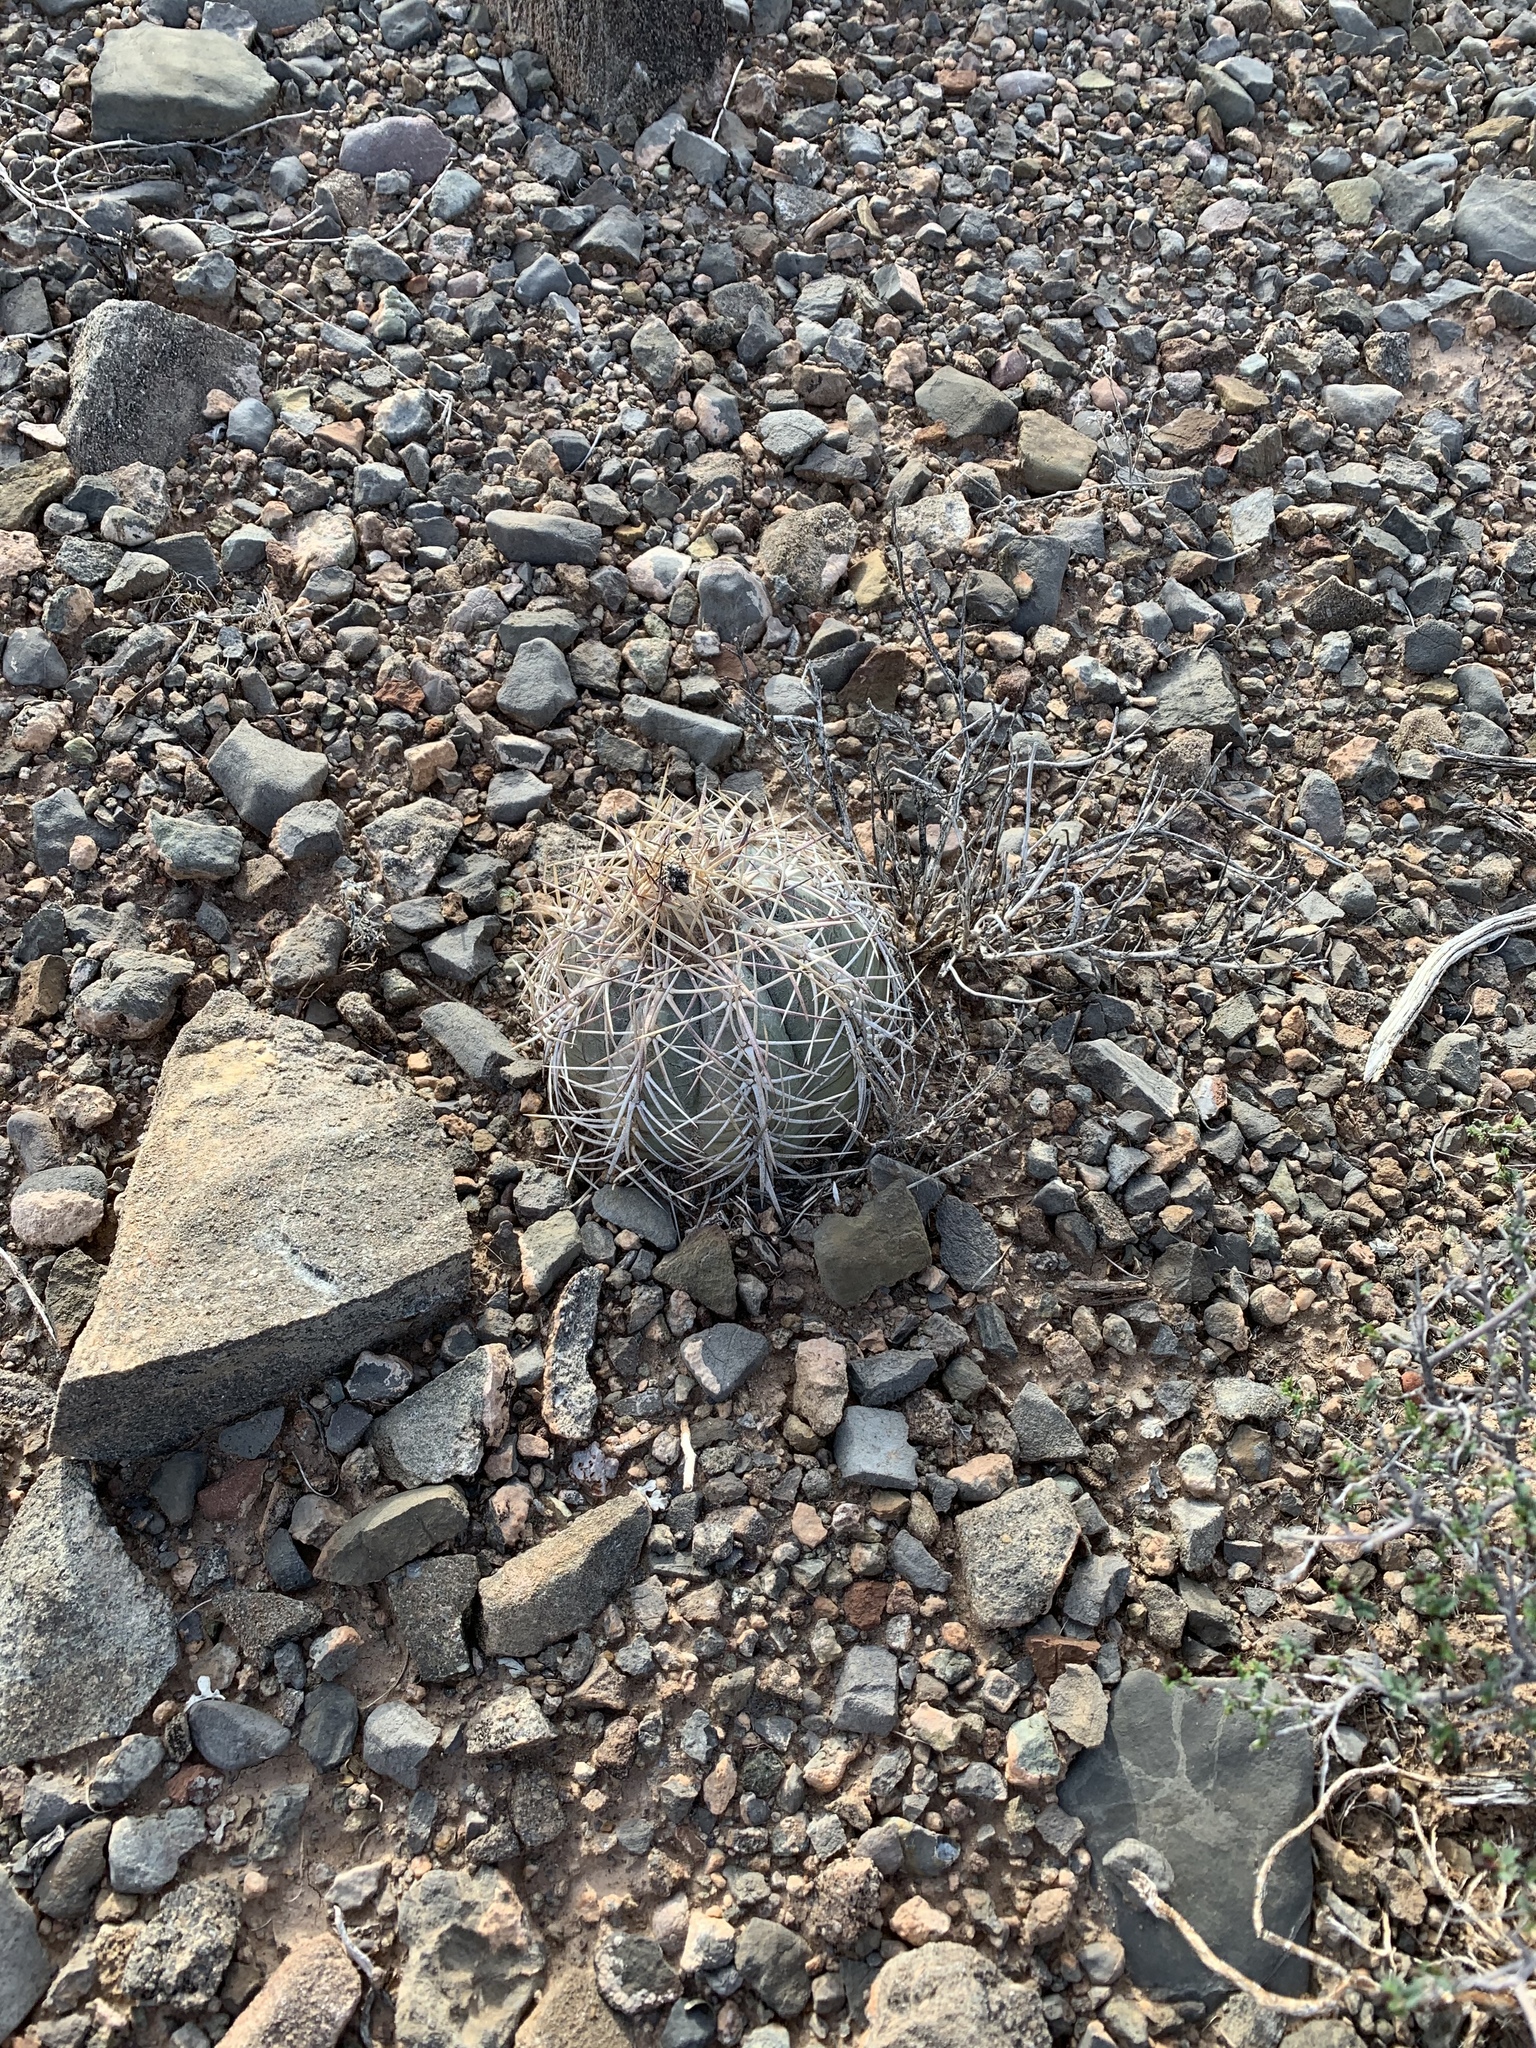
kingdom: Plantae
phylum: Tracheophyta
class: Magnoliopsida
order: Caryophyllales
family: Cactaceae
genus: Echinocactus
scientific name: Echinocactus horizonthalonius
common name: Devilshead
